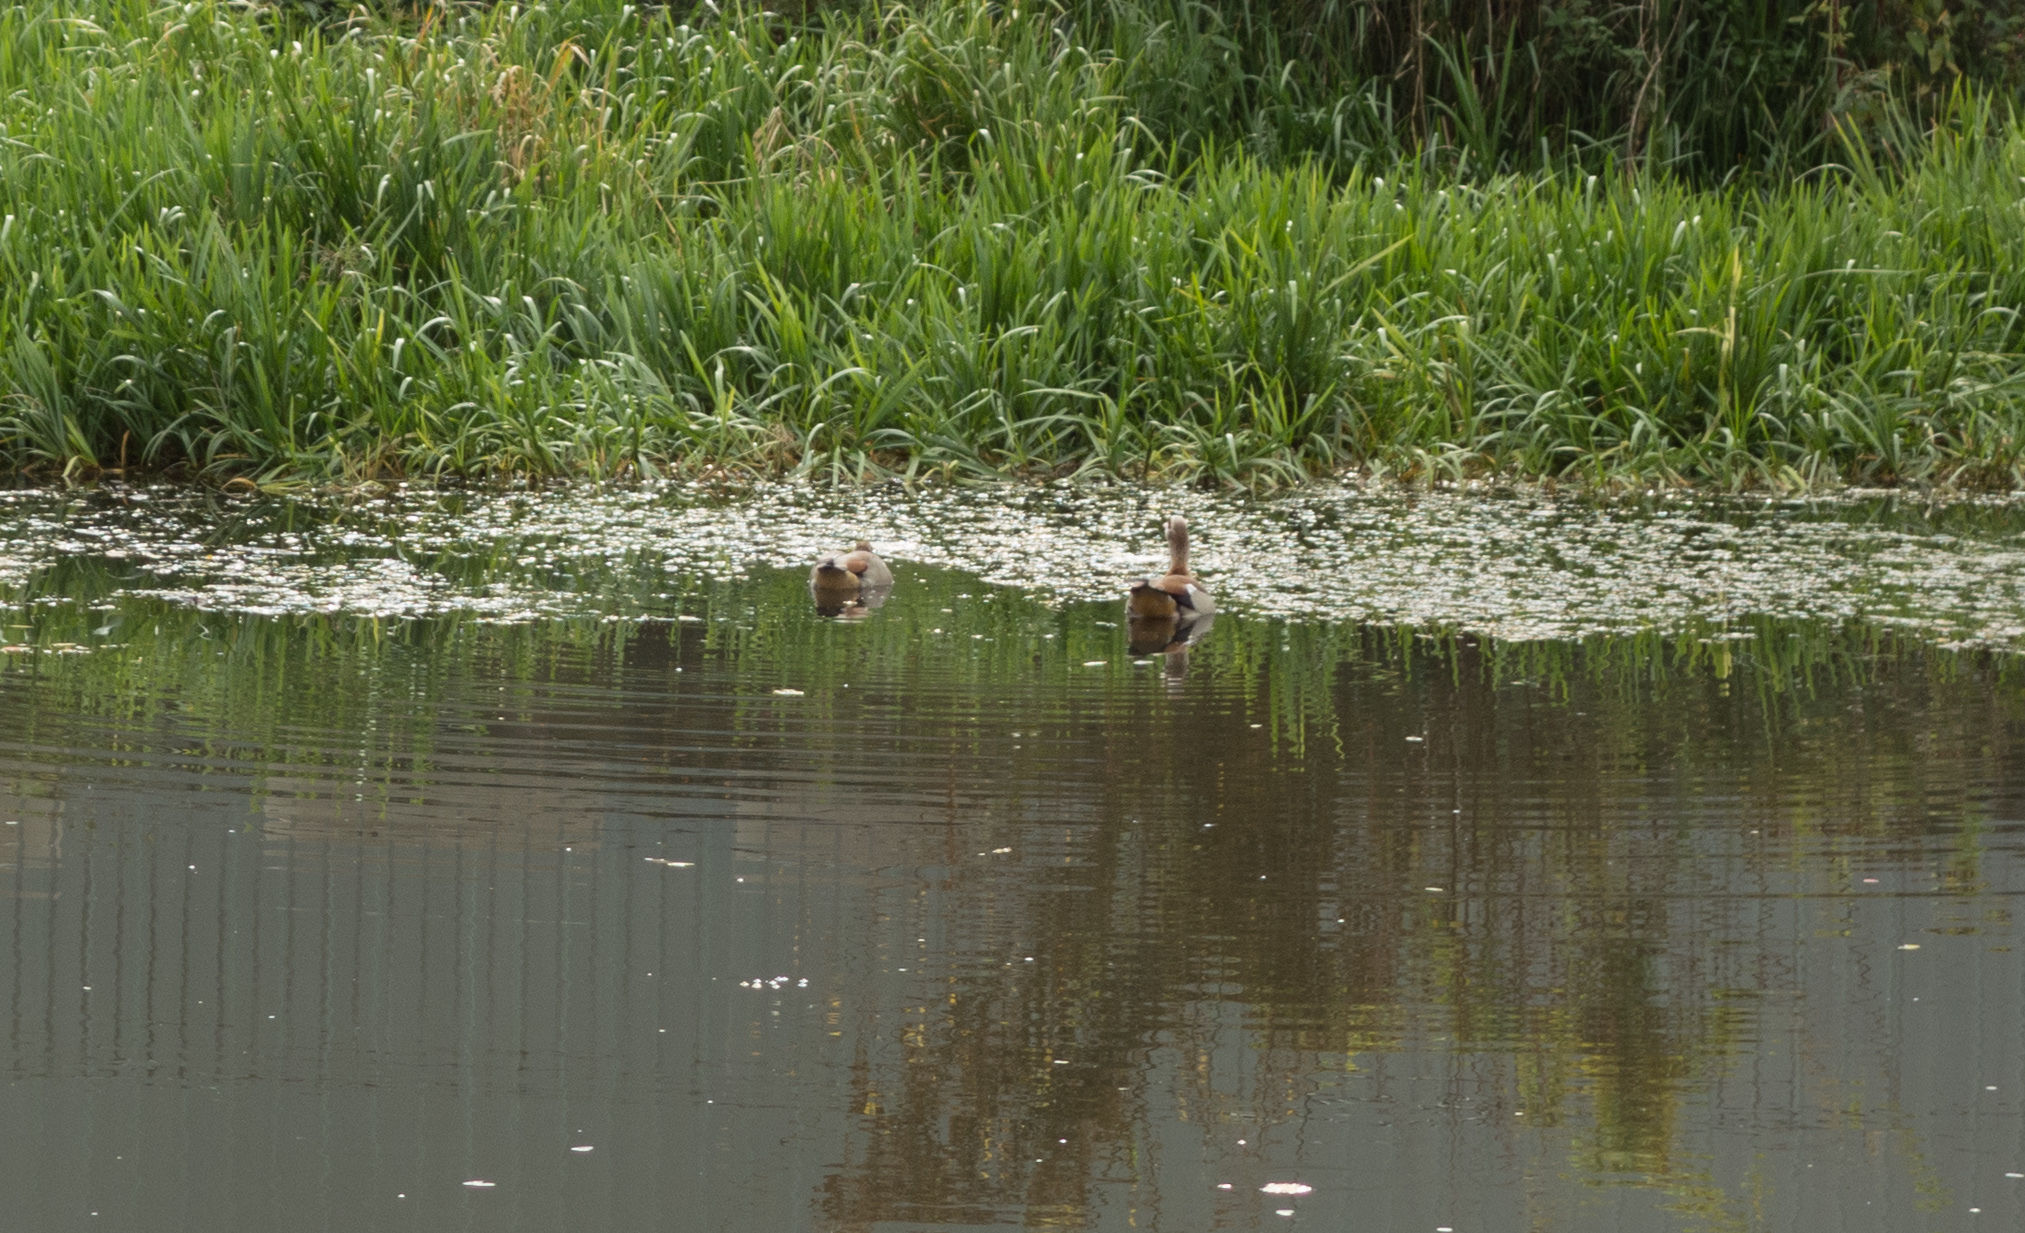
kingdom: Animalia
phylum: Chordata
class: Aves
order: Anseriformes
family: Anatidae
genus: Alopochen
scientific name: Alopochen aegyptiaca
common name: Egyptian goose
